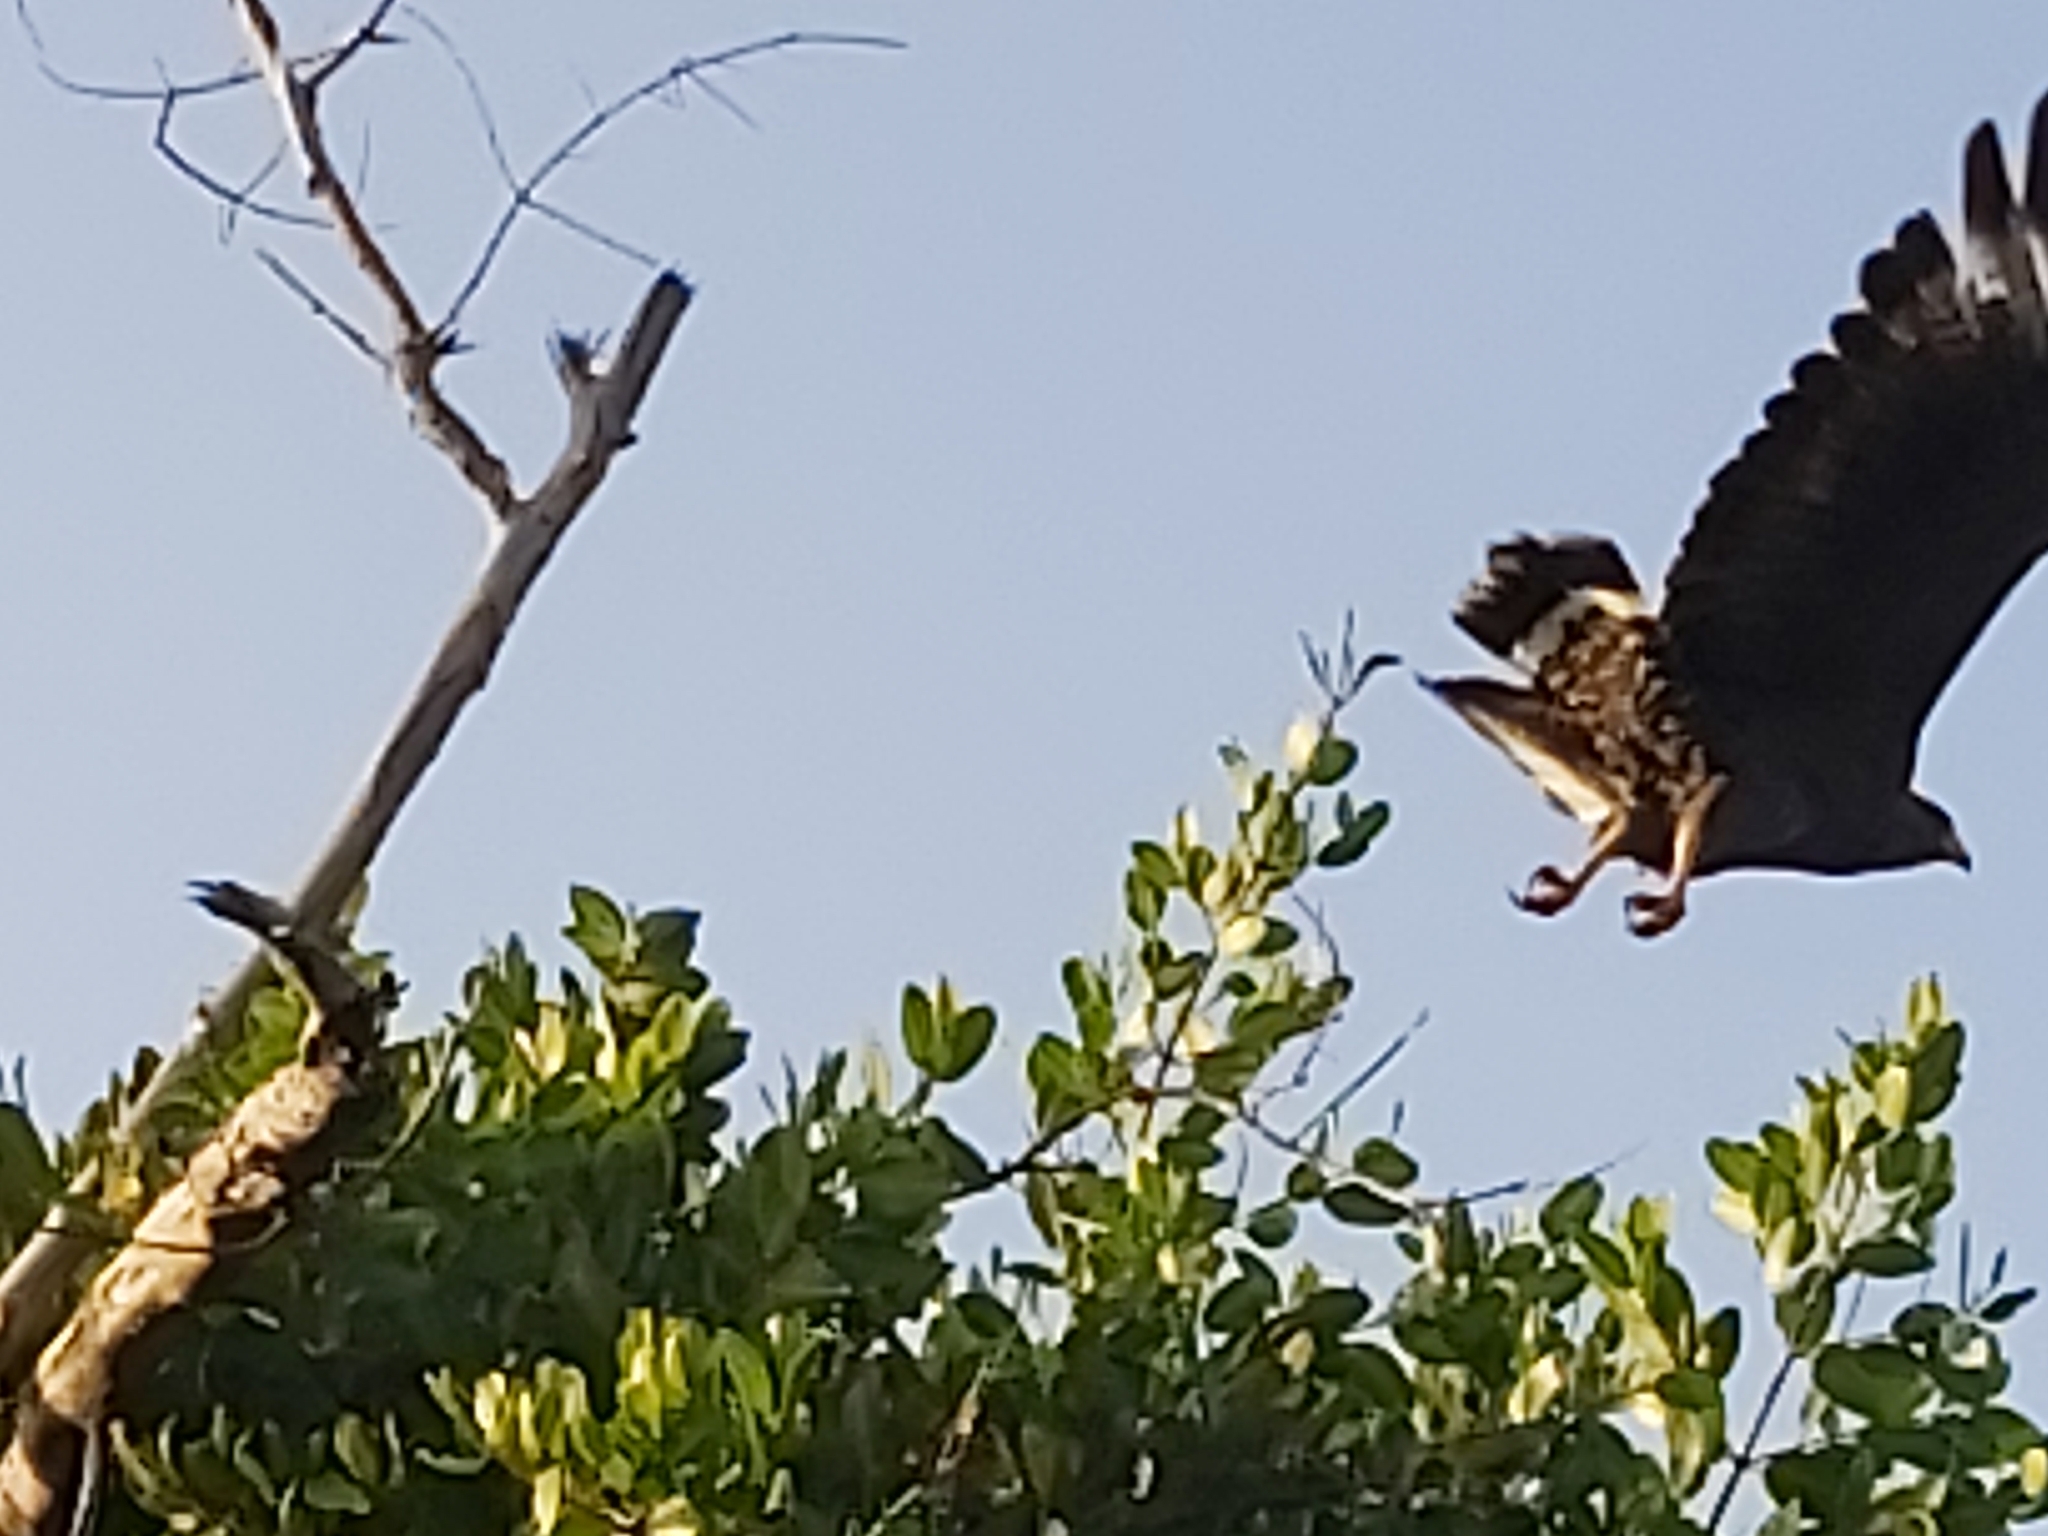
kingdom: Animalia
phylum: Chordata
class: Aves
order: Accipitriformes
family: Accipitridae
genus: Buteogallus
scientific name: Buteogallus gundlachii
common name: Cuban black hawk
